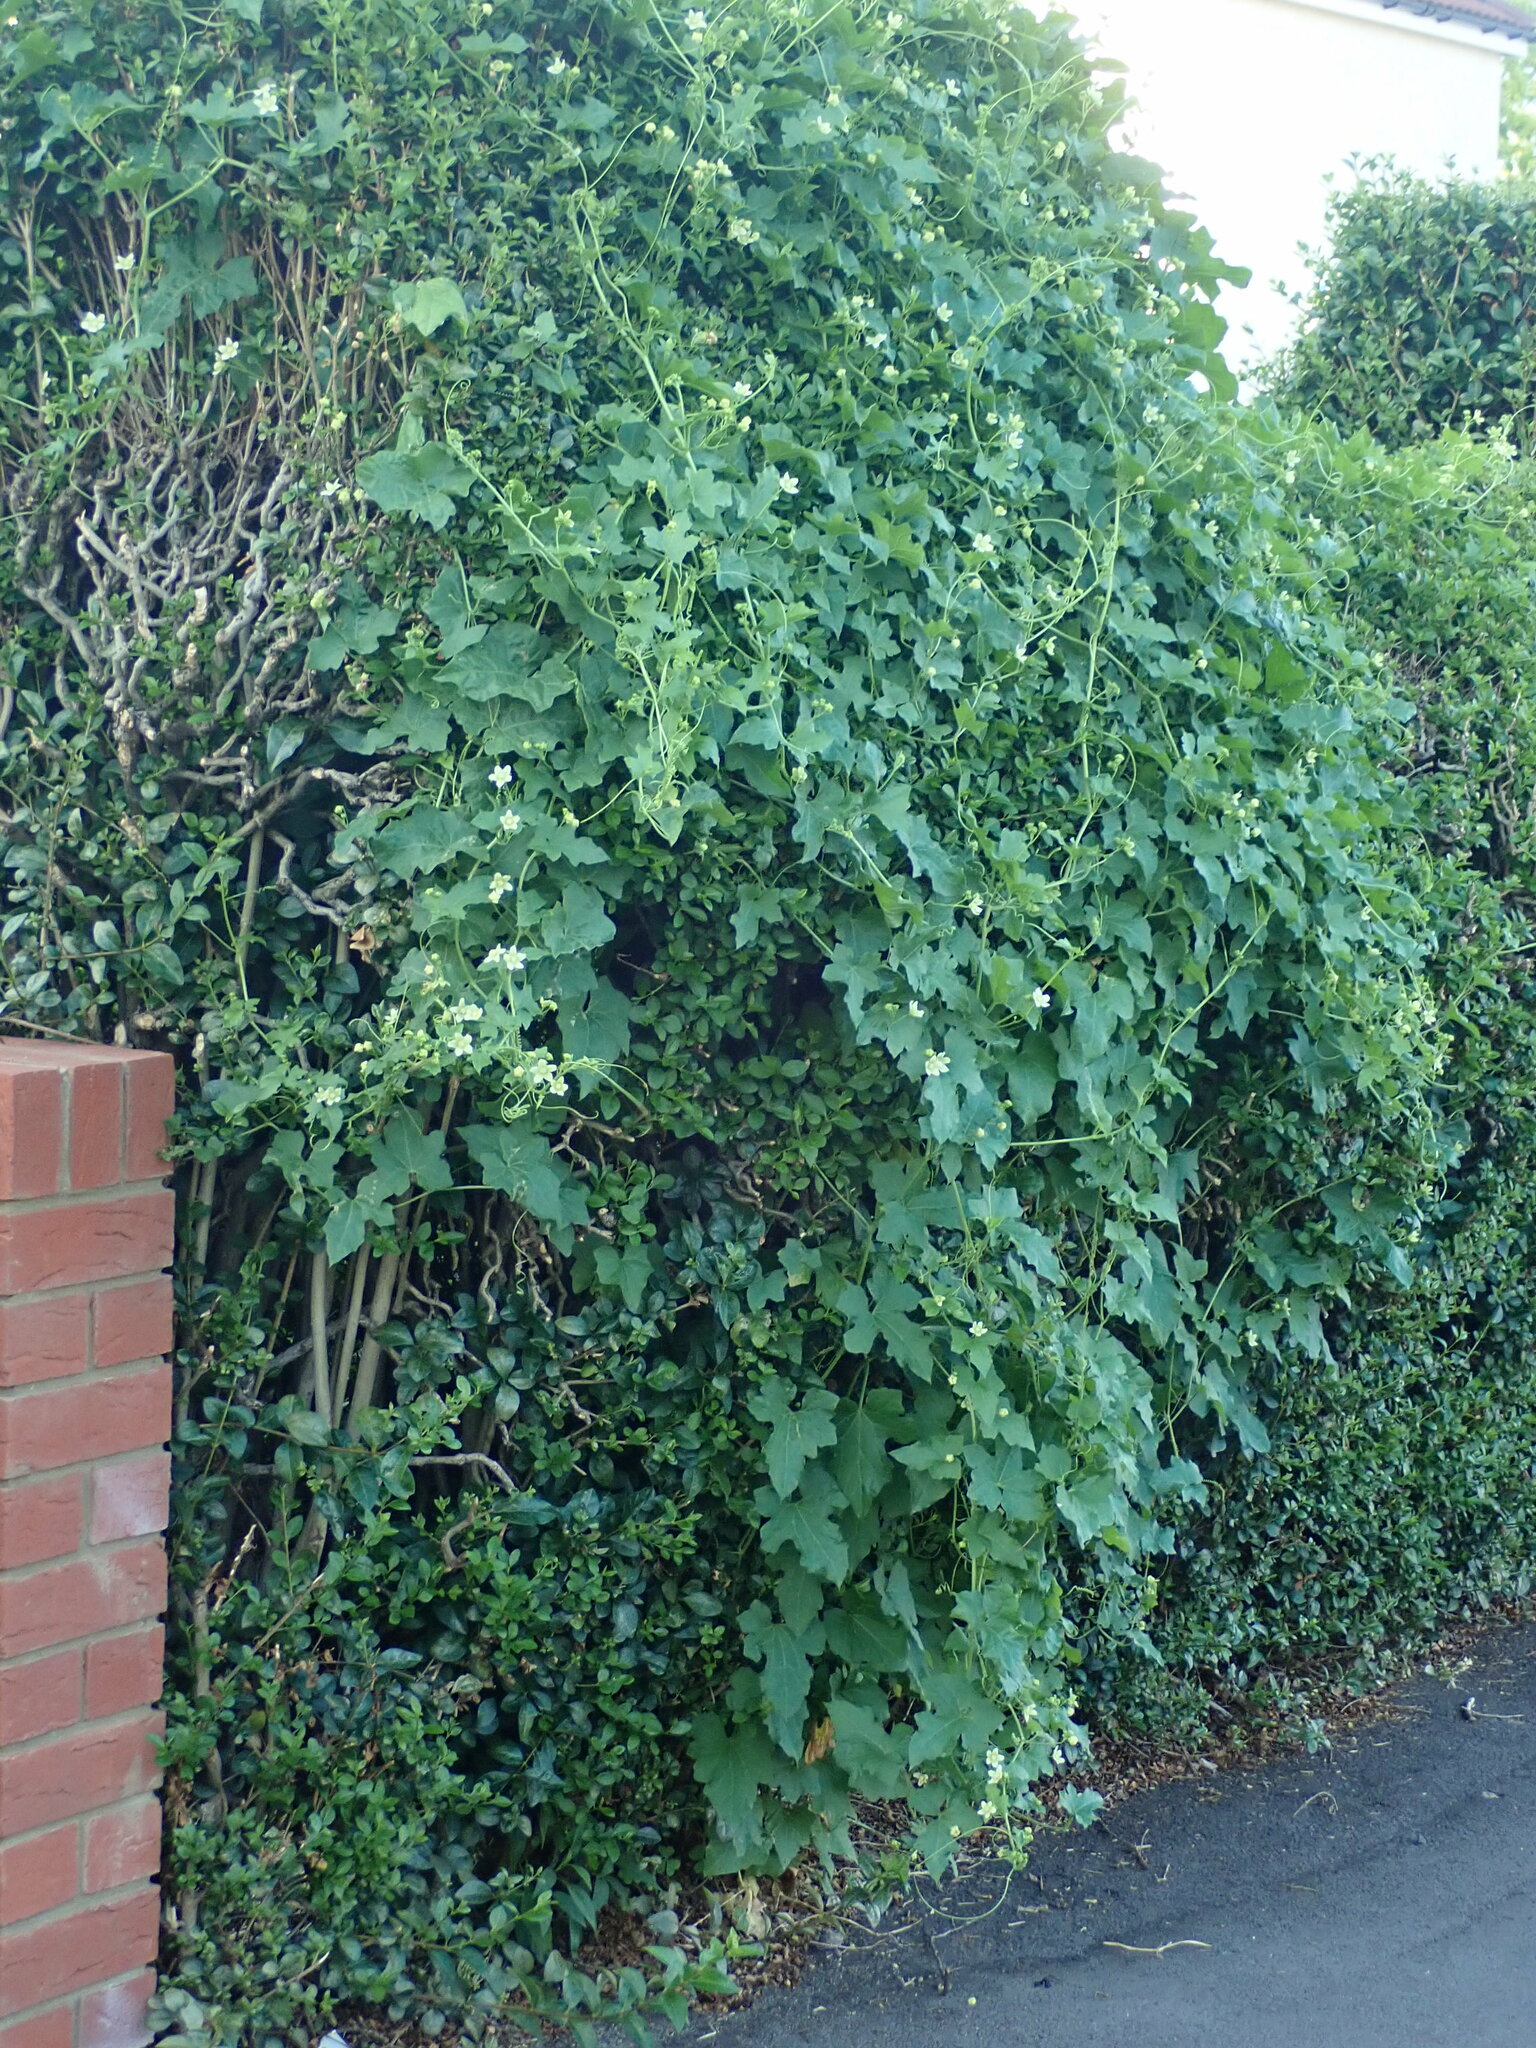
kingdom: Plantae
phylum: Tracheophyta
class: Magnoliopsida
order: Cucurbitales
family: Cucurbitaceae
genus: Bryonia
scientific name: Bryonia dioica
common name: White bryony
